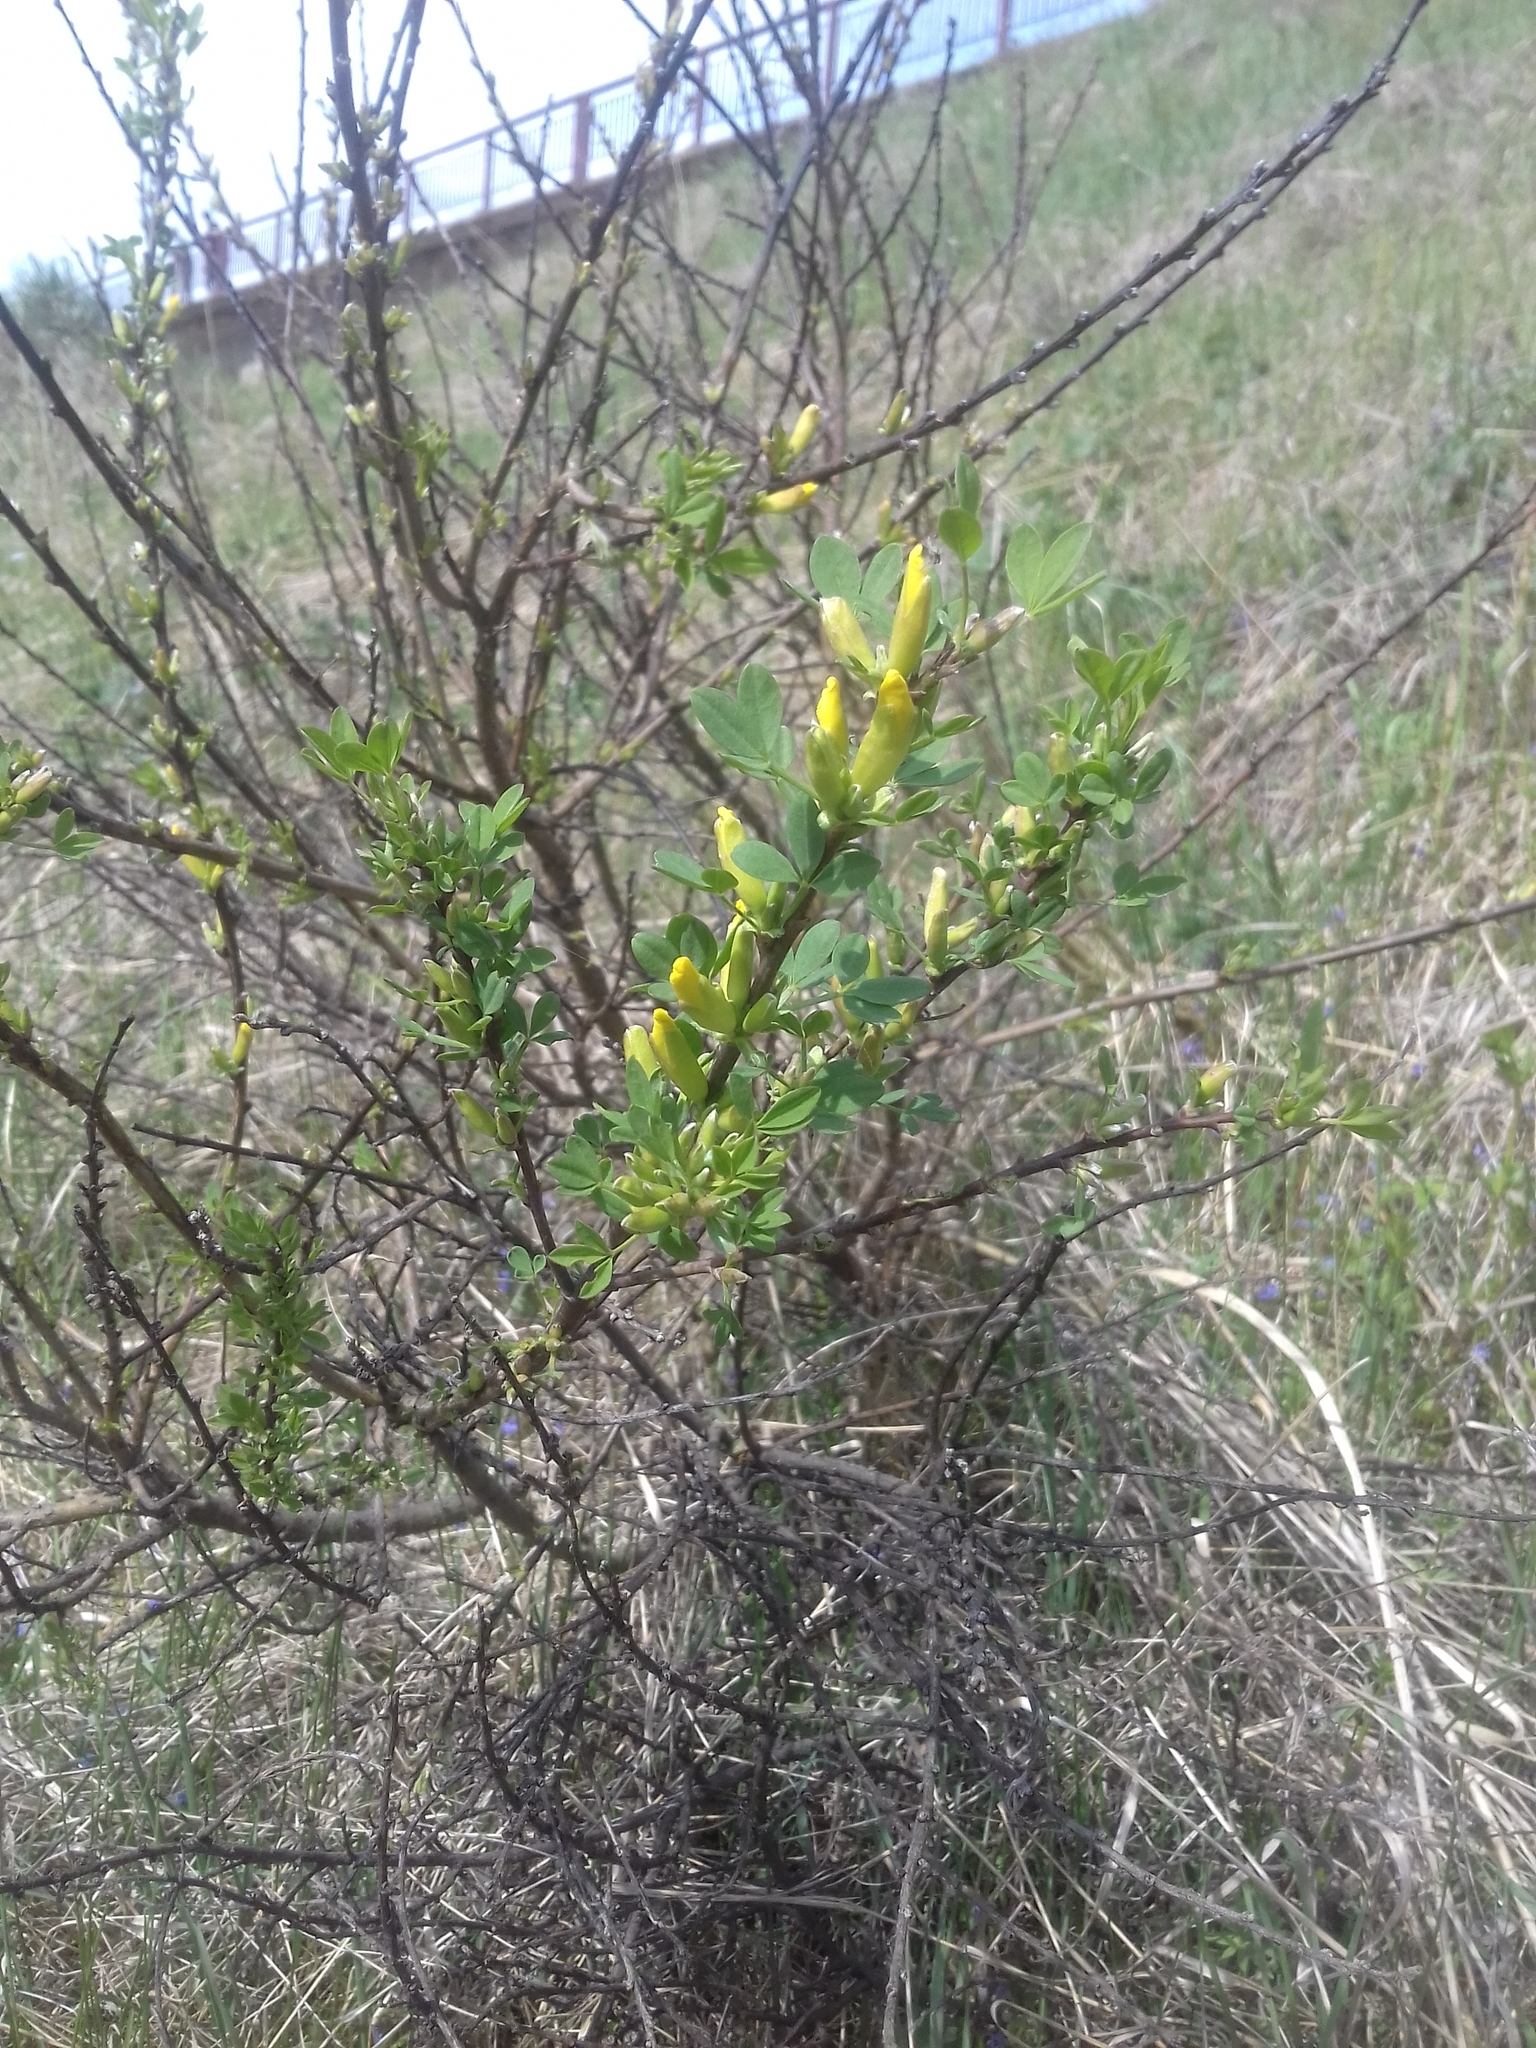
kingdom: Plantae
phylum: Tracheophyta
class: Magnoliopsida
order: Fabales
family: Fabaceae
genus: Chamaecytisus
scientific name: Chamaecytisus ruthenicus
